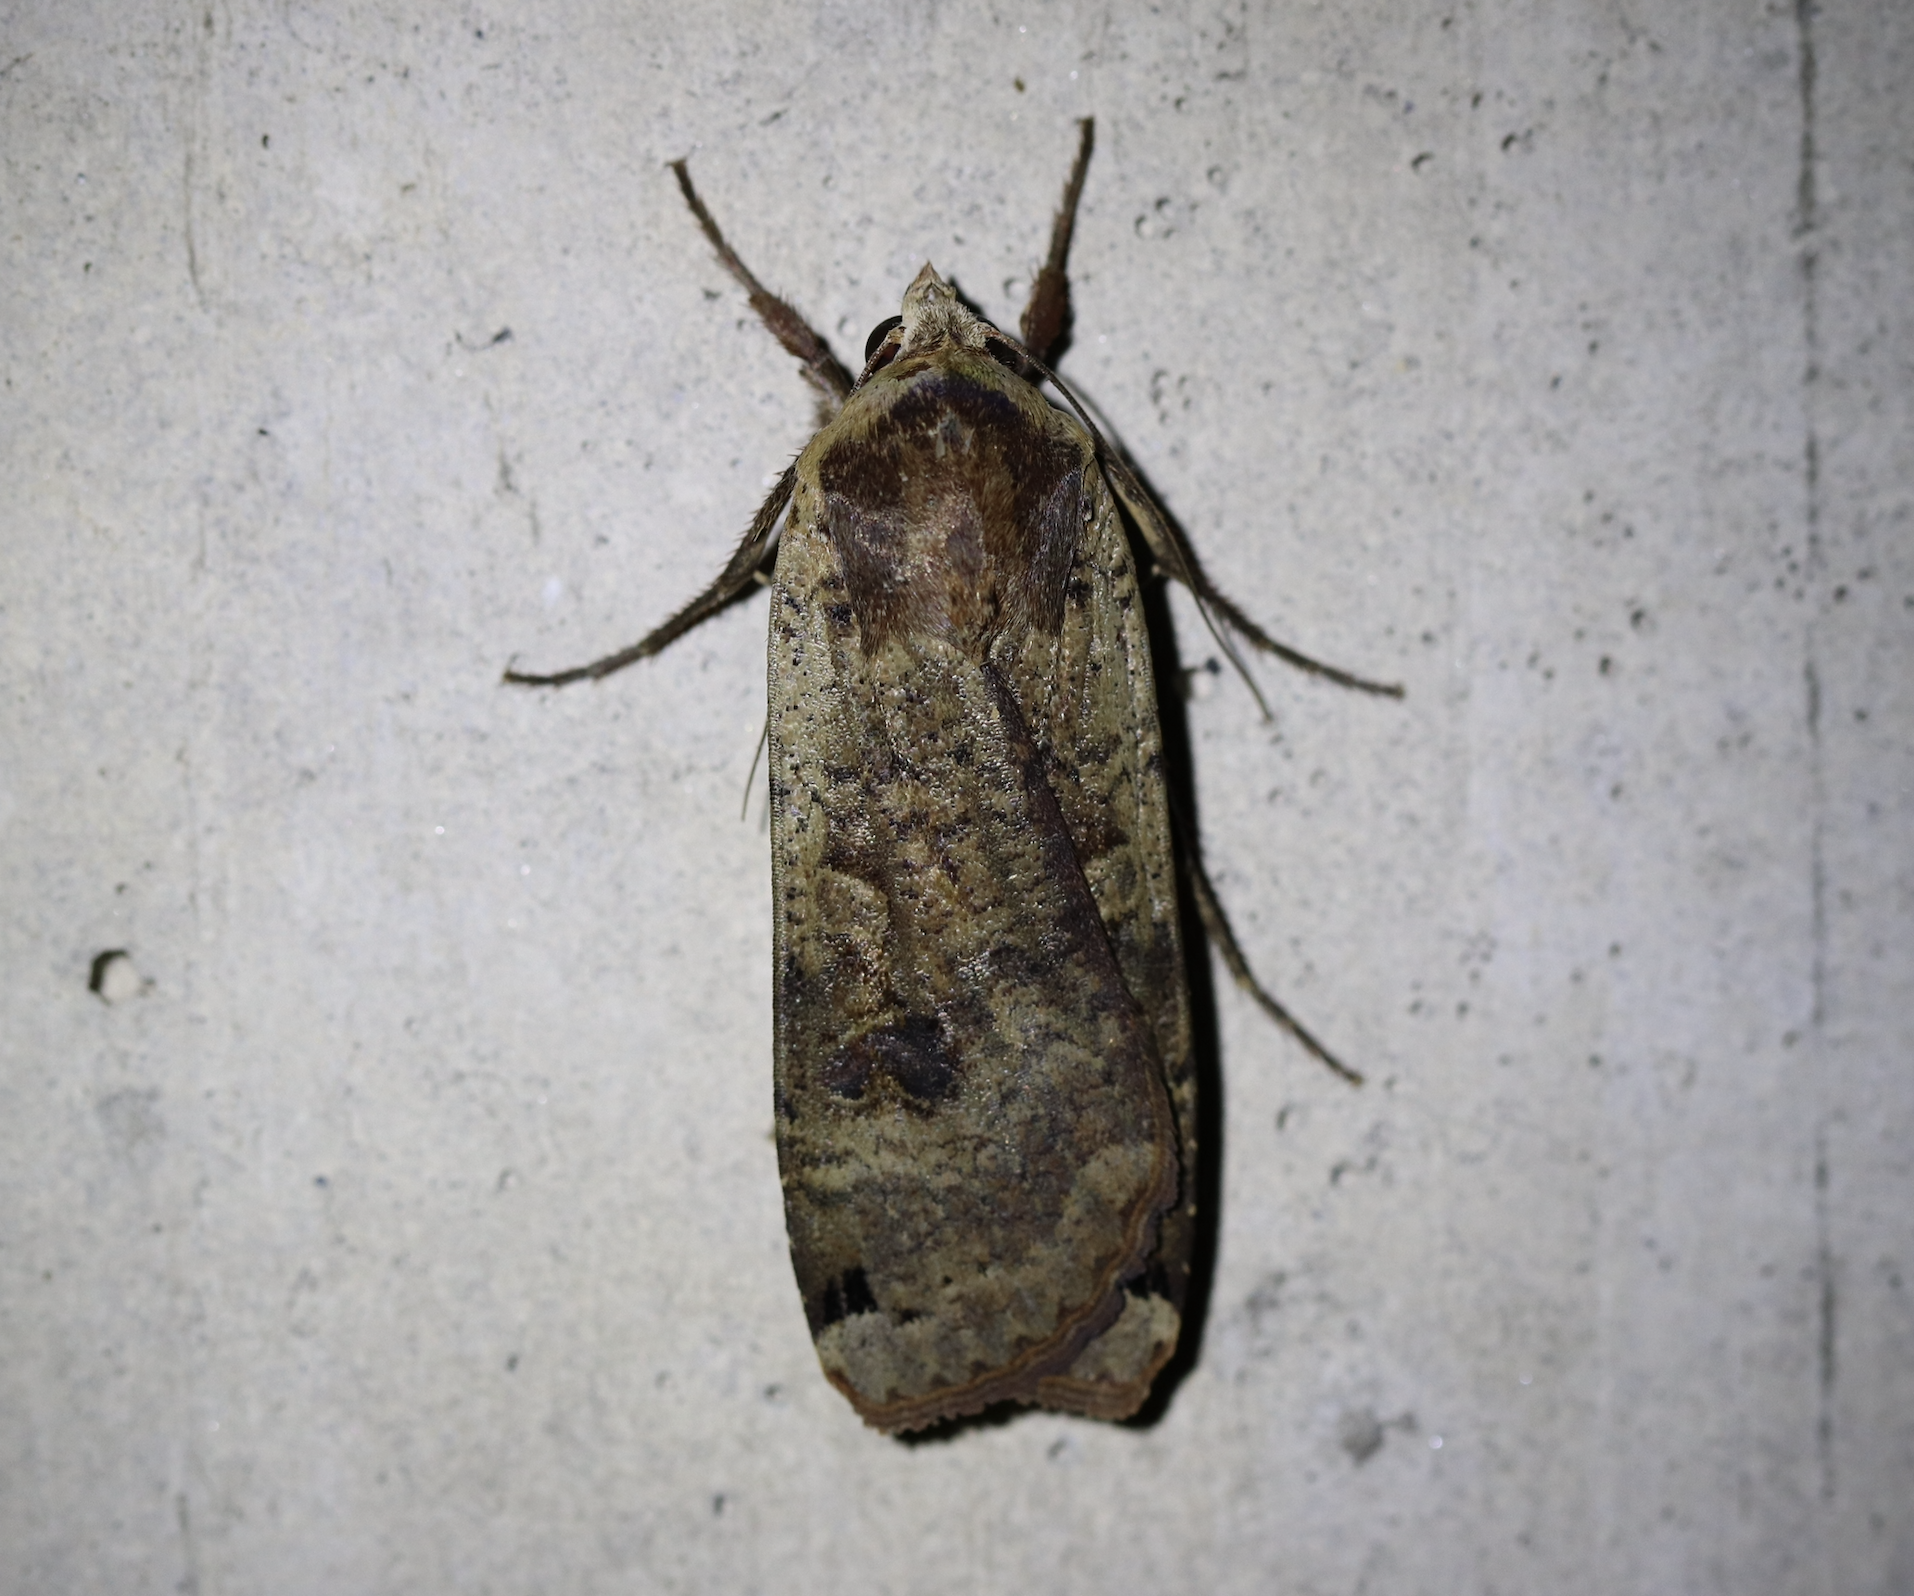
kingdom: Animalia
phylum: Arthropoda
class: Insecta
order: Lepidoptera
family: Noctuidae
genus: Noctua
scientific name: Noctua pronuba
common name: Large yellow underwing
